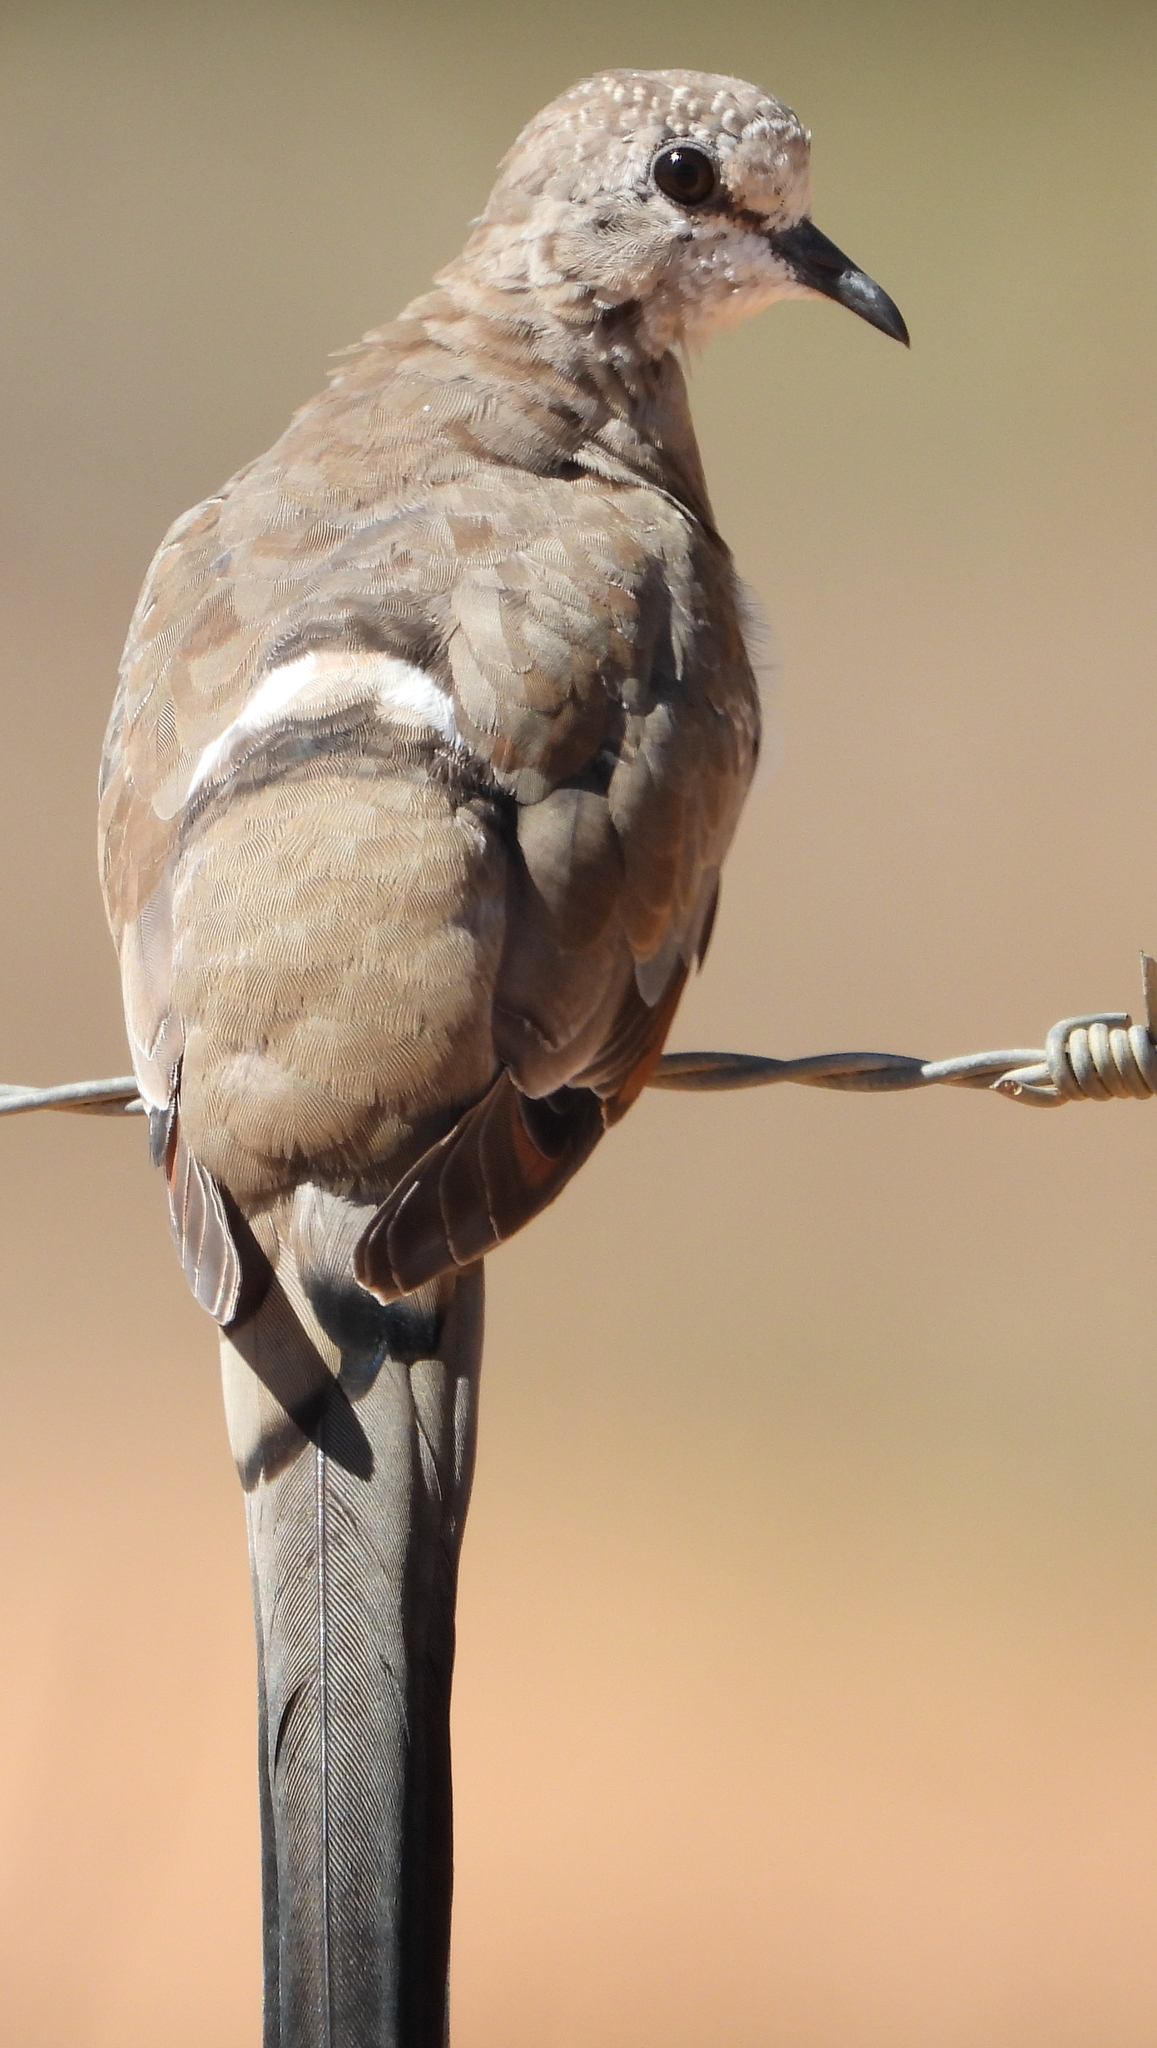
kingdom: Animalia
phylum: Chordata
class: Aves
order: Columbiformes
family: Columbidae
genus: Oena
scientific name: Oena capensis
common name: Namaqua dove
